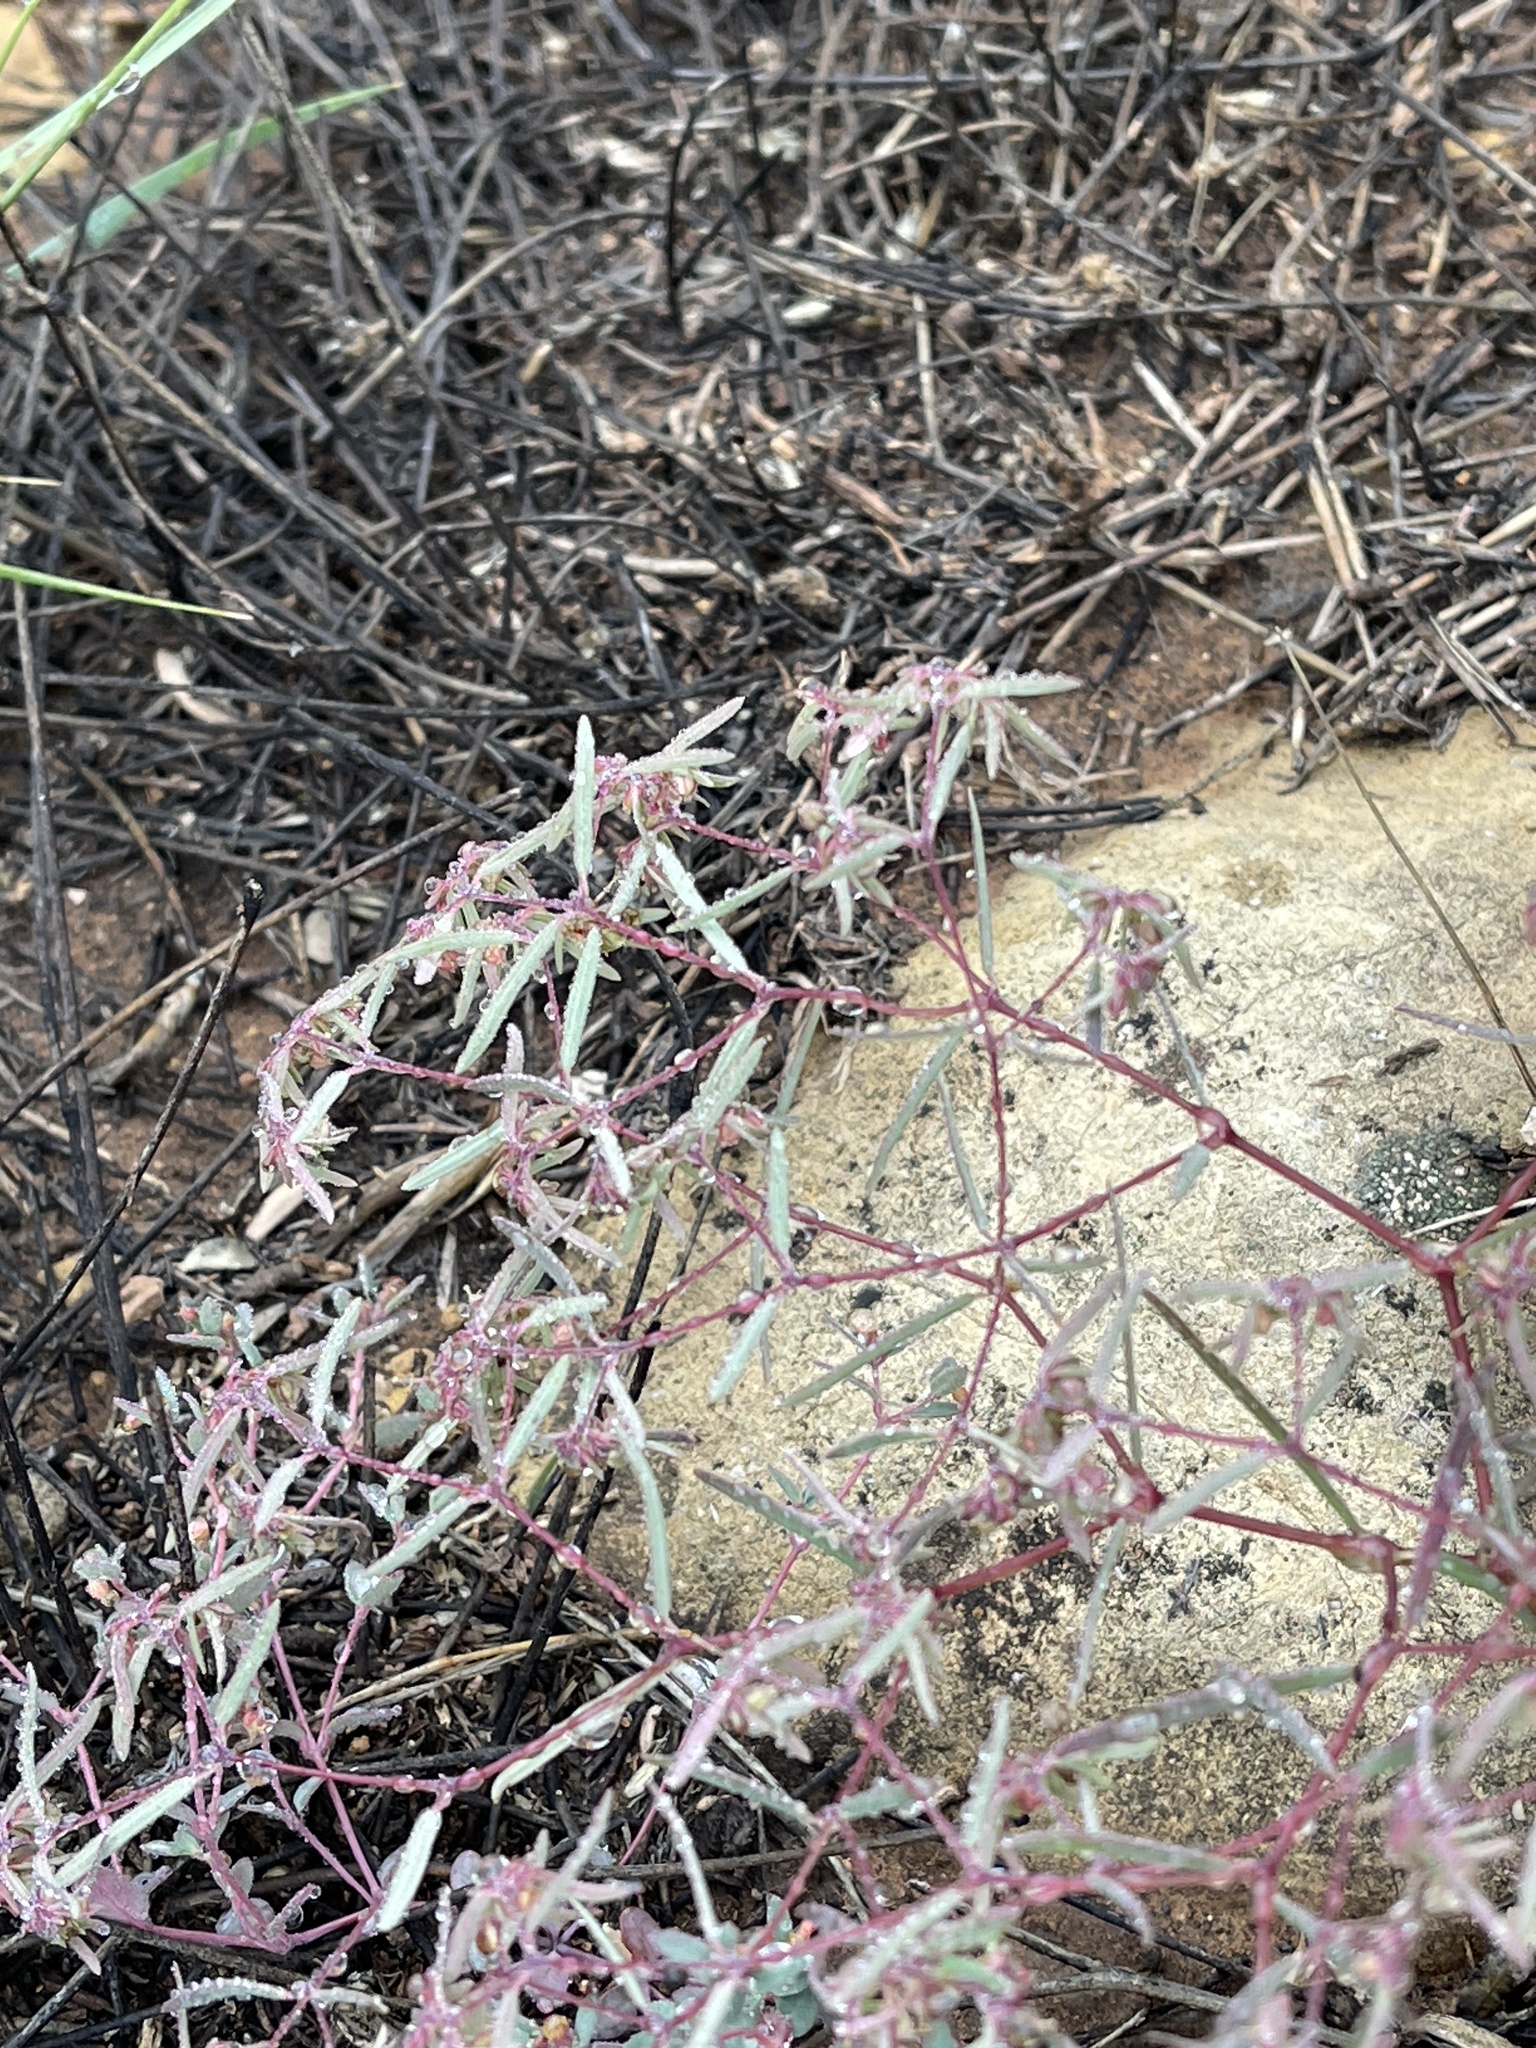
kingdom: Plantae
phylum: Tracheophyta
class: Magnoliopsida
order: Malpighiales
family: Euphorbiaceae
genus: Euphorbia
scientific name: Euphorbia revoluta
